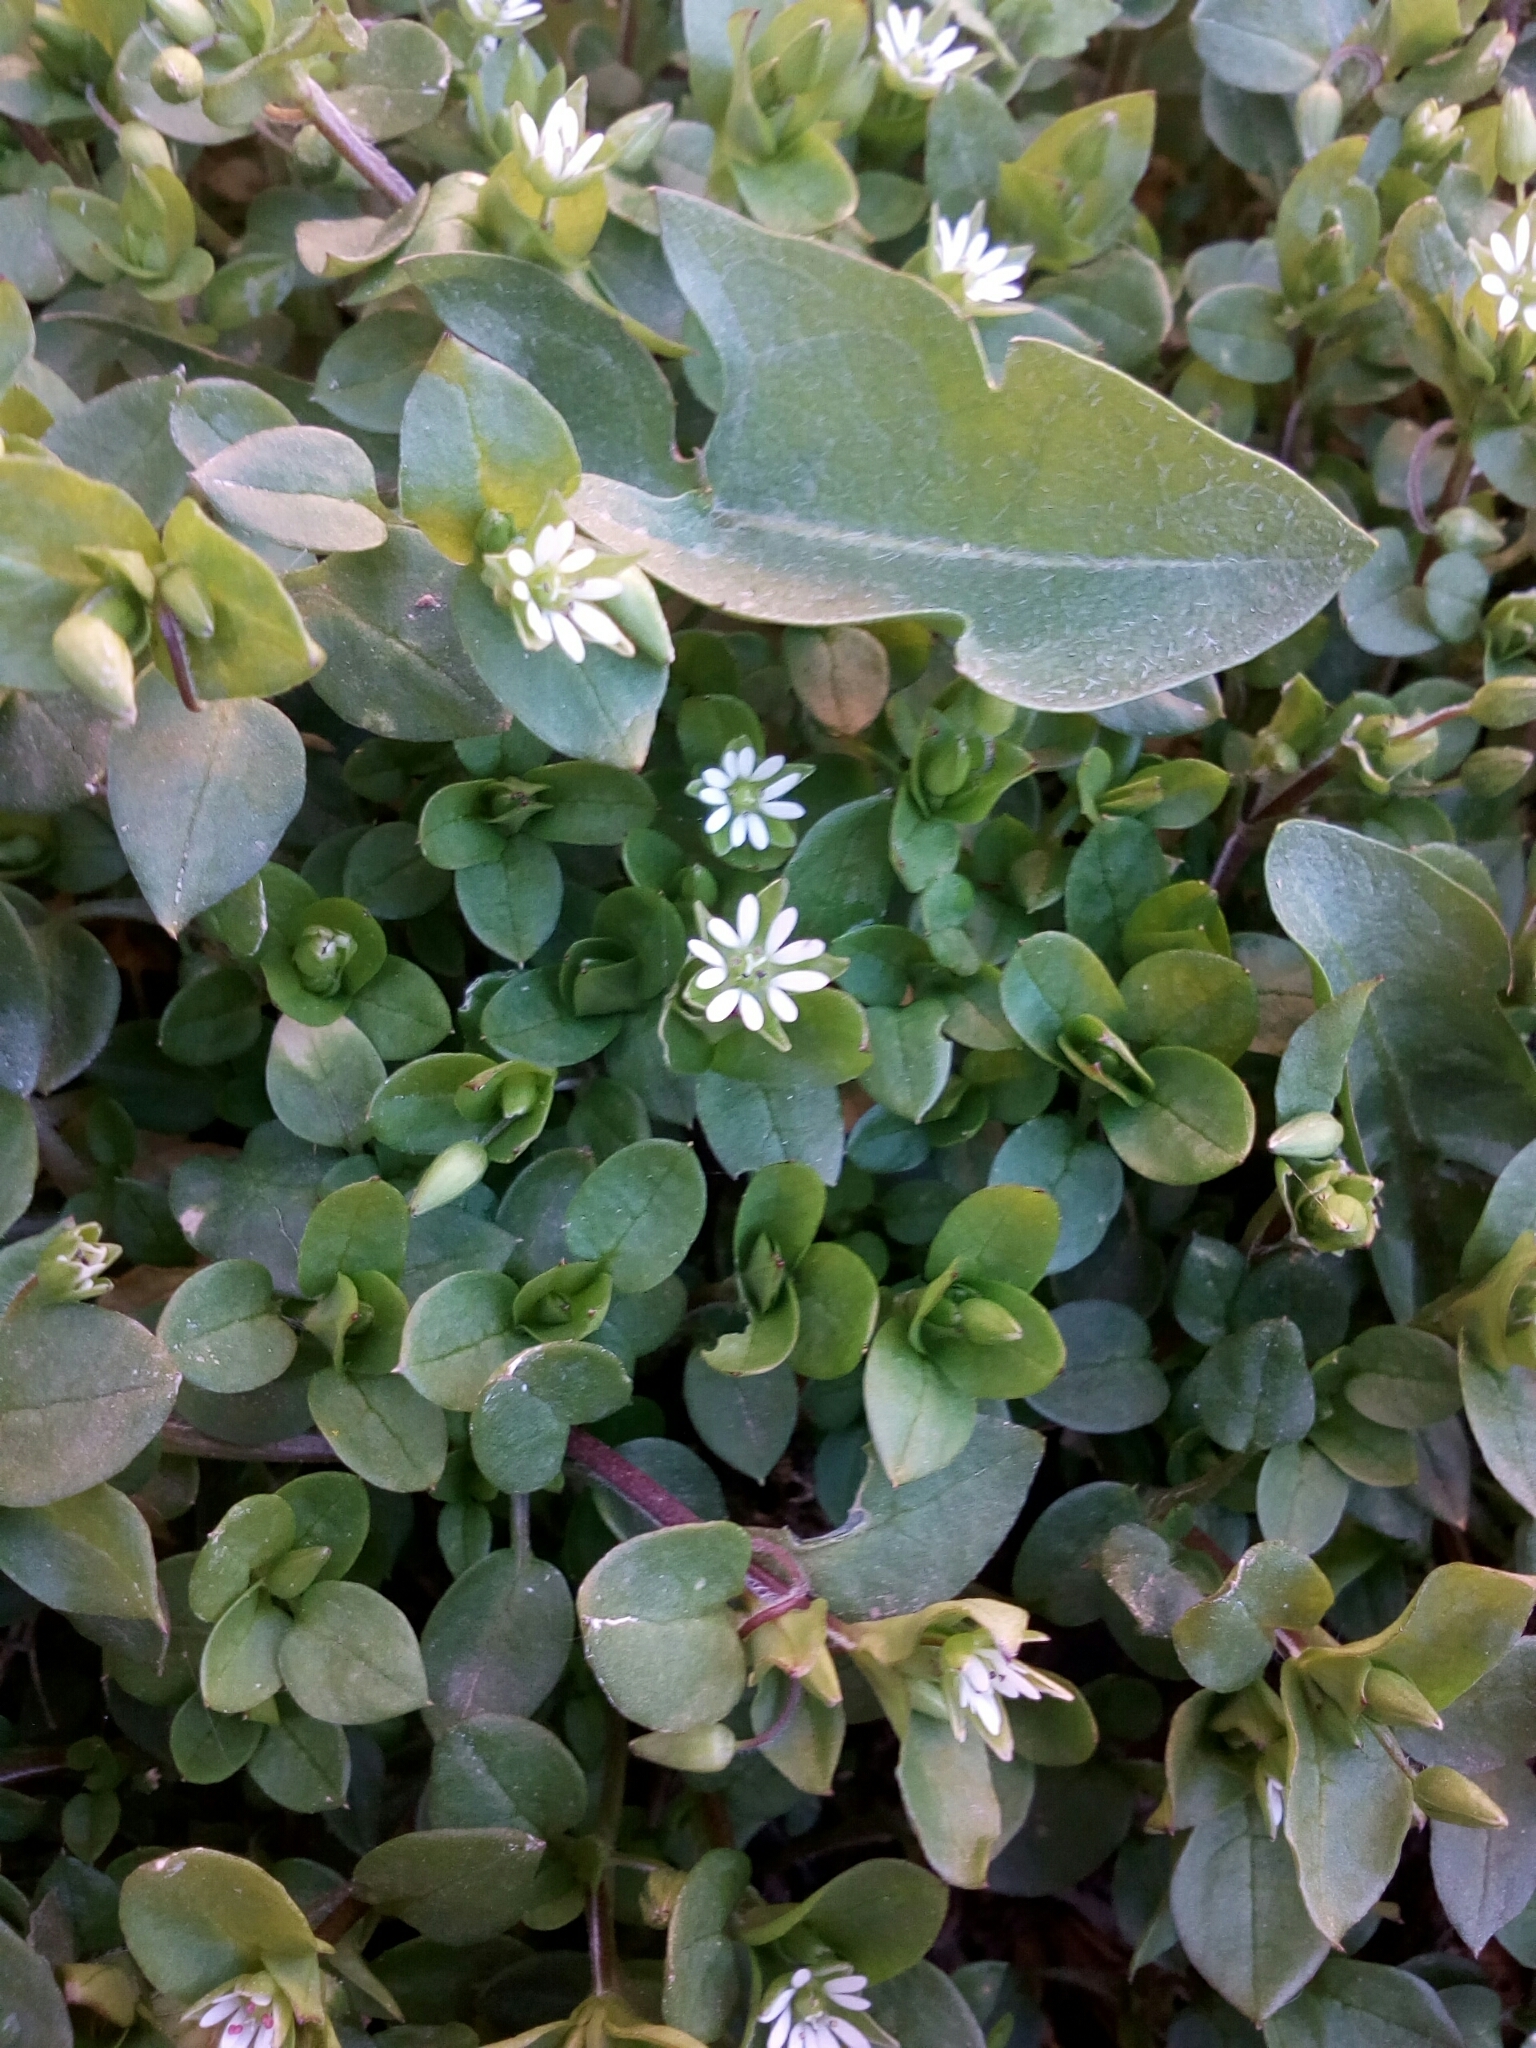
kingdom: Plantae
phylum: Tracheophyta
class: Magnoliopsida
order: Caryophyllales
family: Caryophyllaceae
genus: Stellaria
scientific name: Stellaria media
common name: Common chickweed
